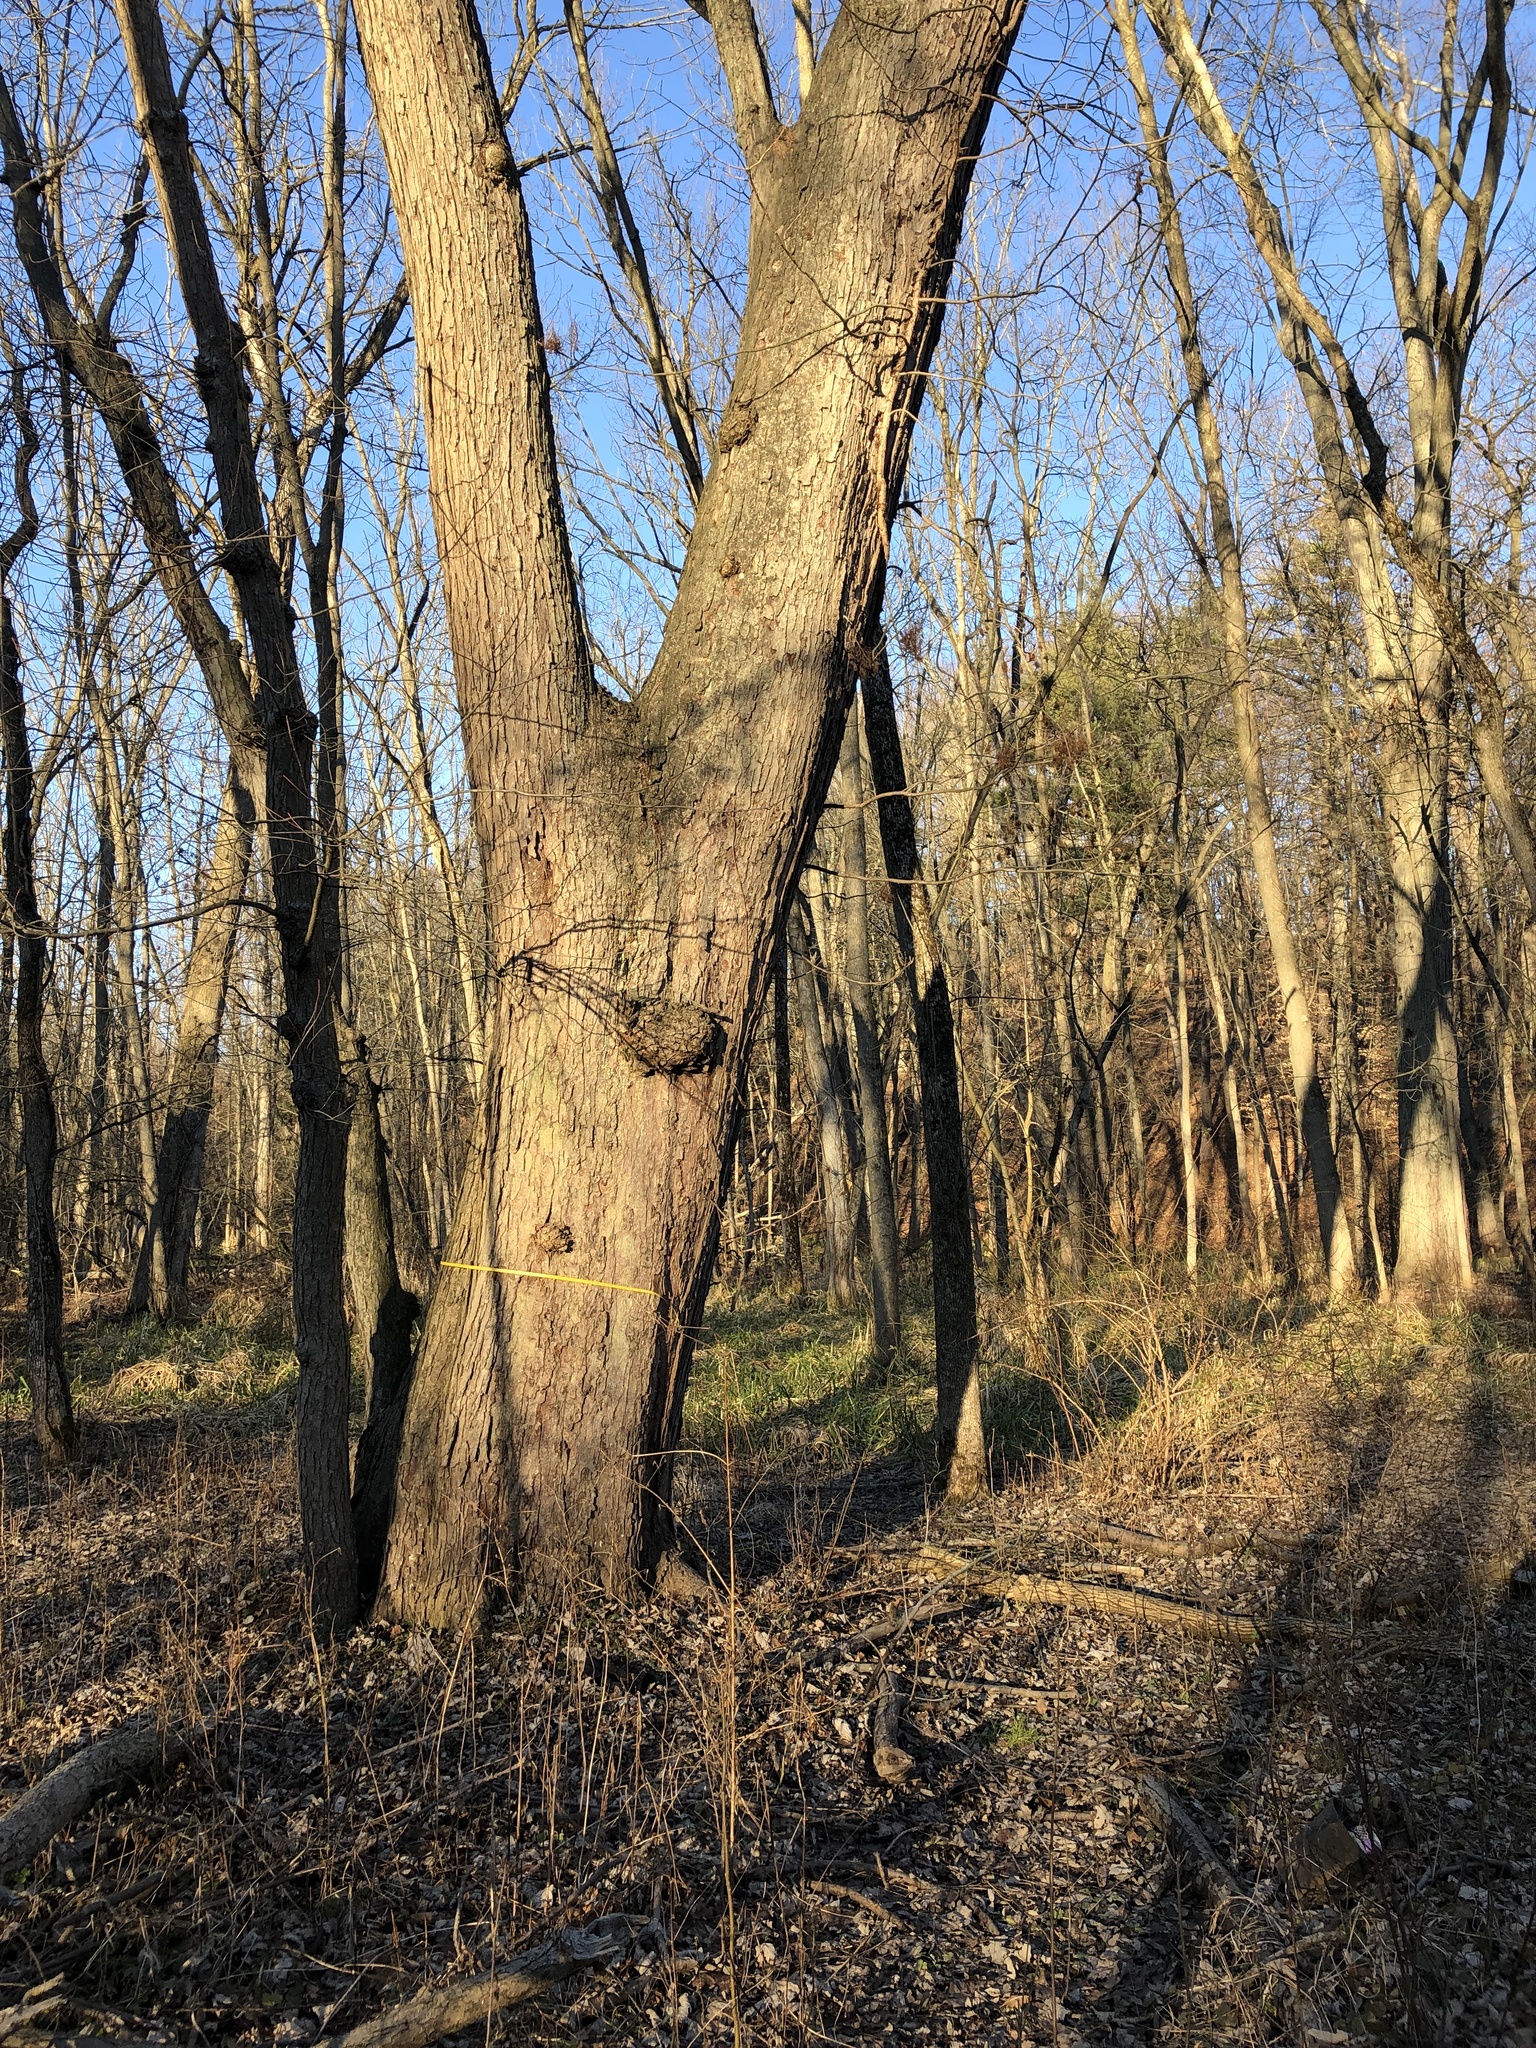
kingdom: Plantae
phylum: Tracheophyta
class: Magnoliopsida
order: Sapindales
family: Sapindaceae
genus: Acer
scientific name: Acer saccharinum
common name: Silver maple
